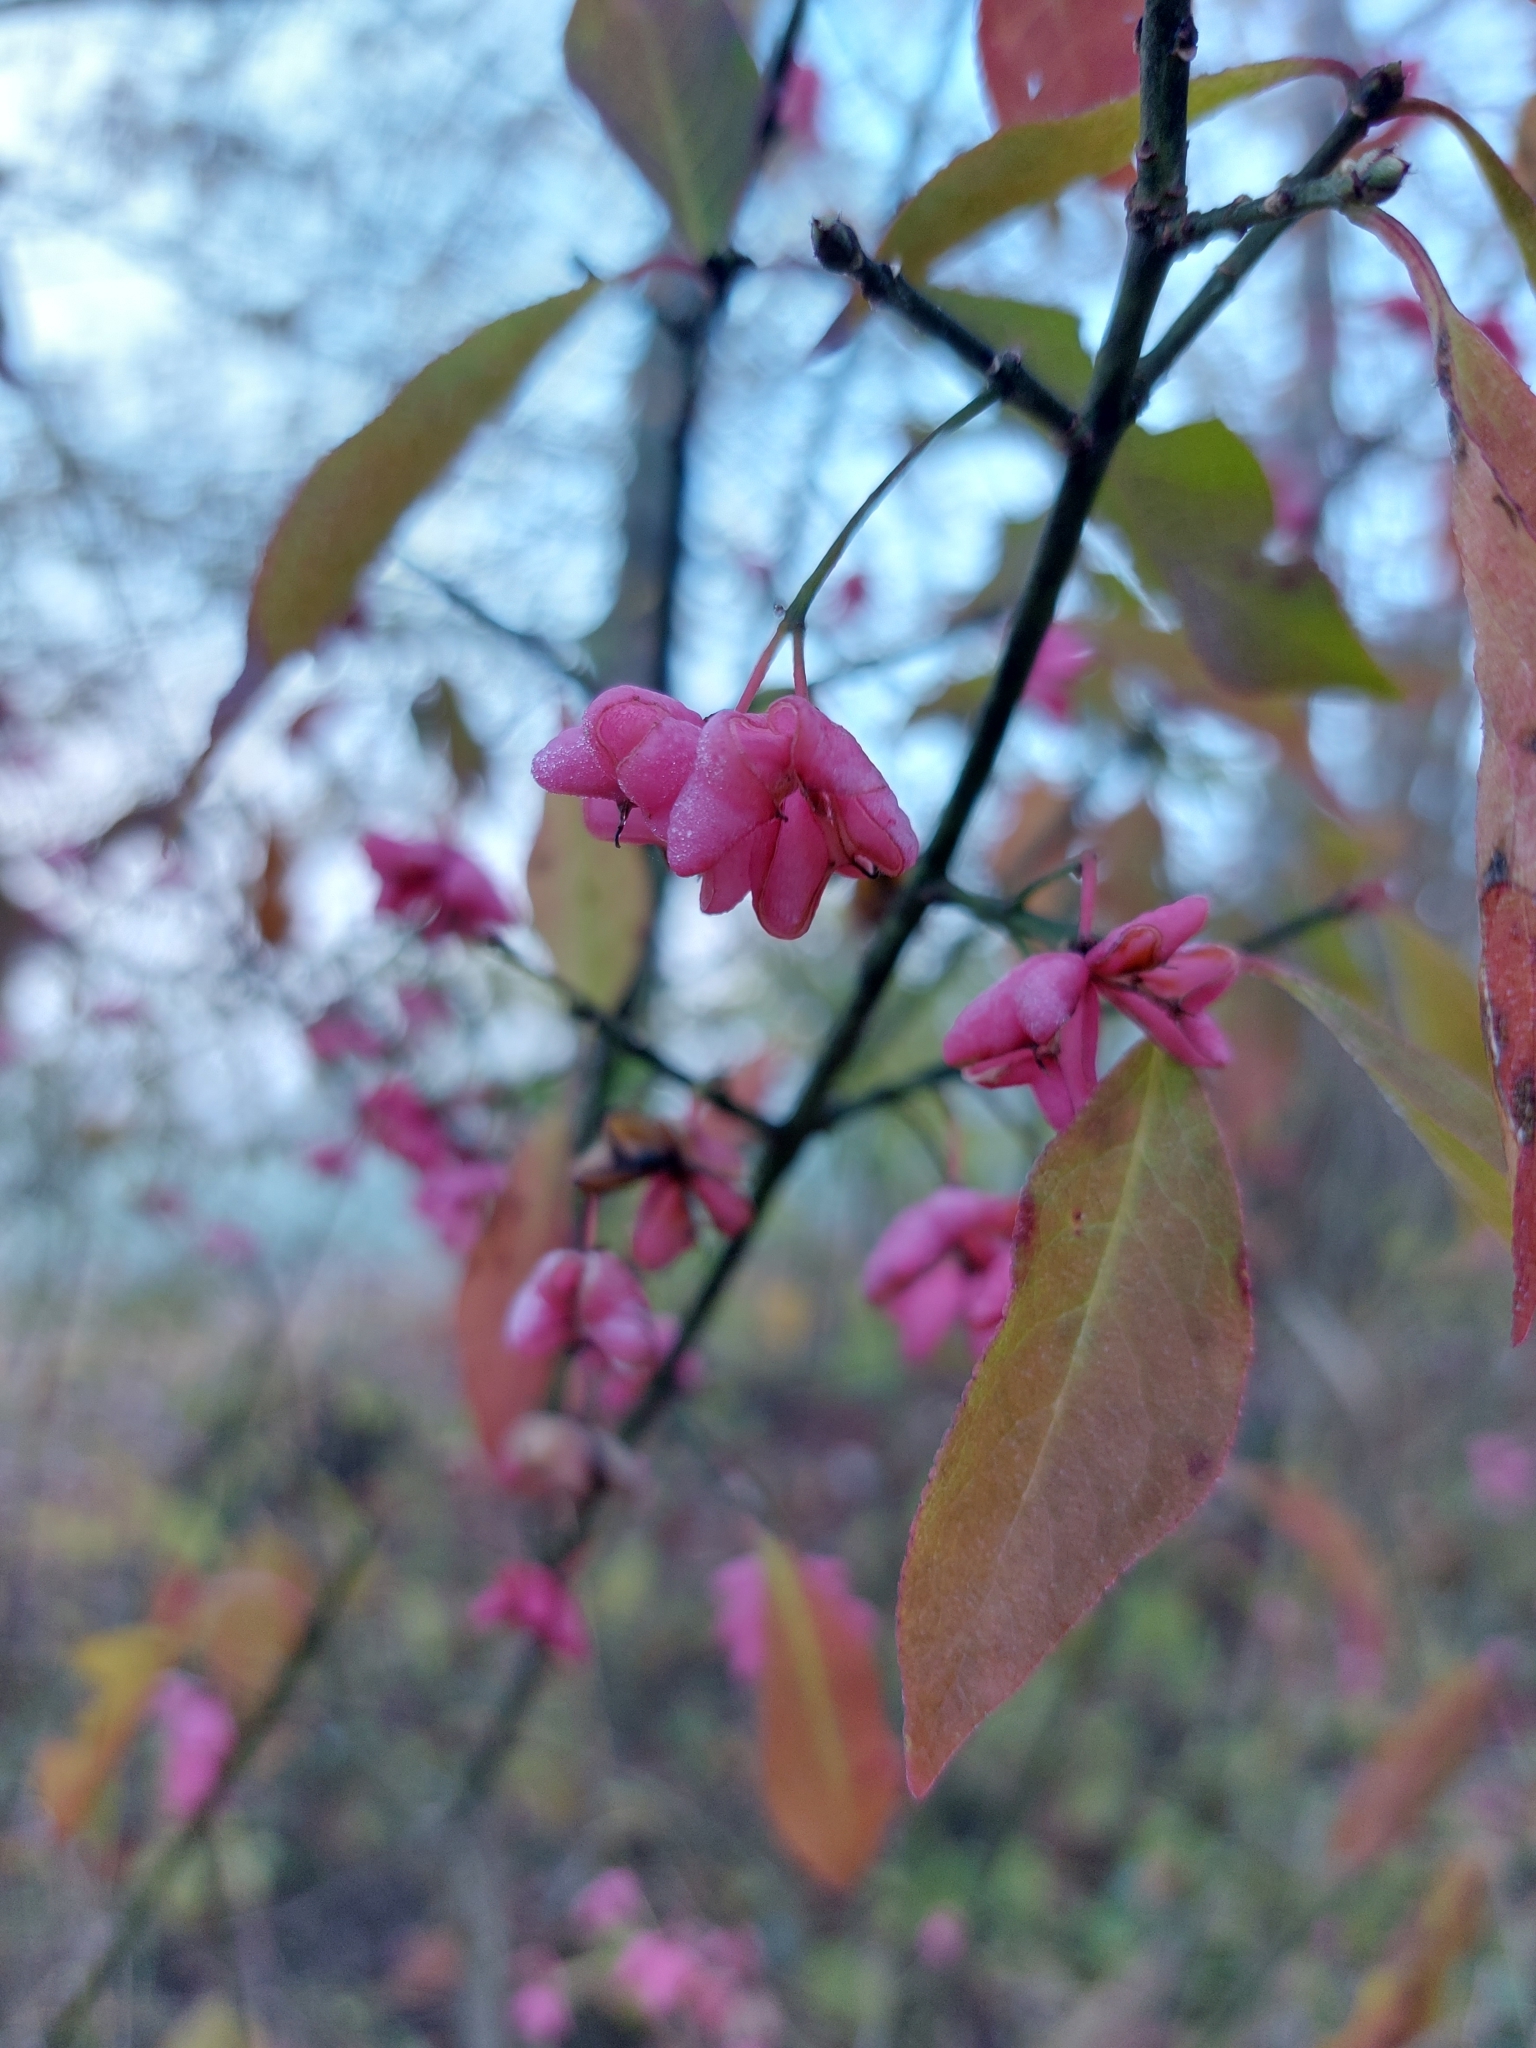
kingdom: Plantae
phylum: Tracheophyta
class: Magnoliopsida
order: Celastrales
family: Celastraceae
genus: Euonymus
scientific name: Euonymus europaeus
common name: Spindle
